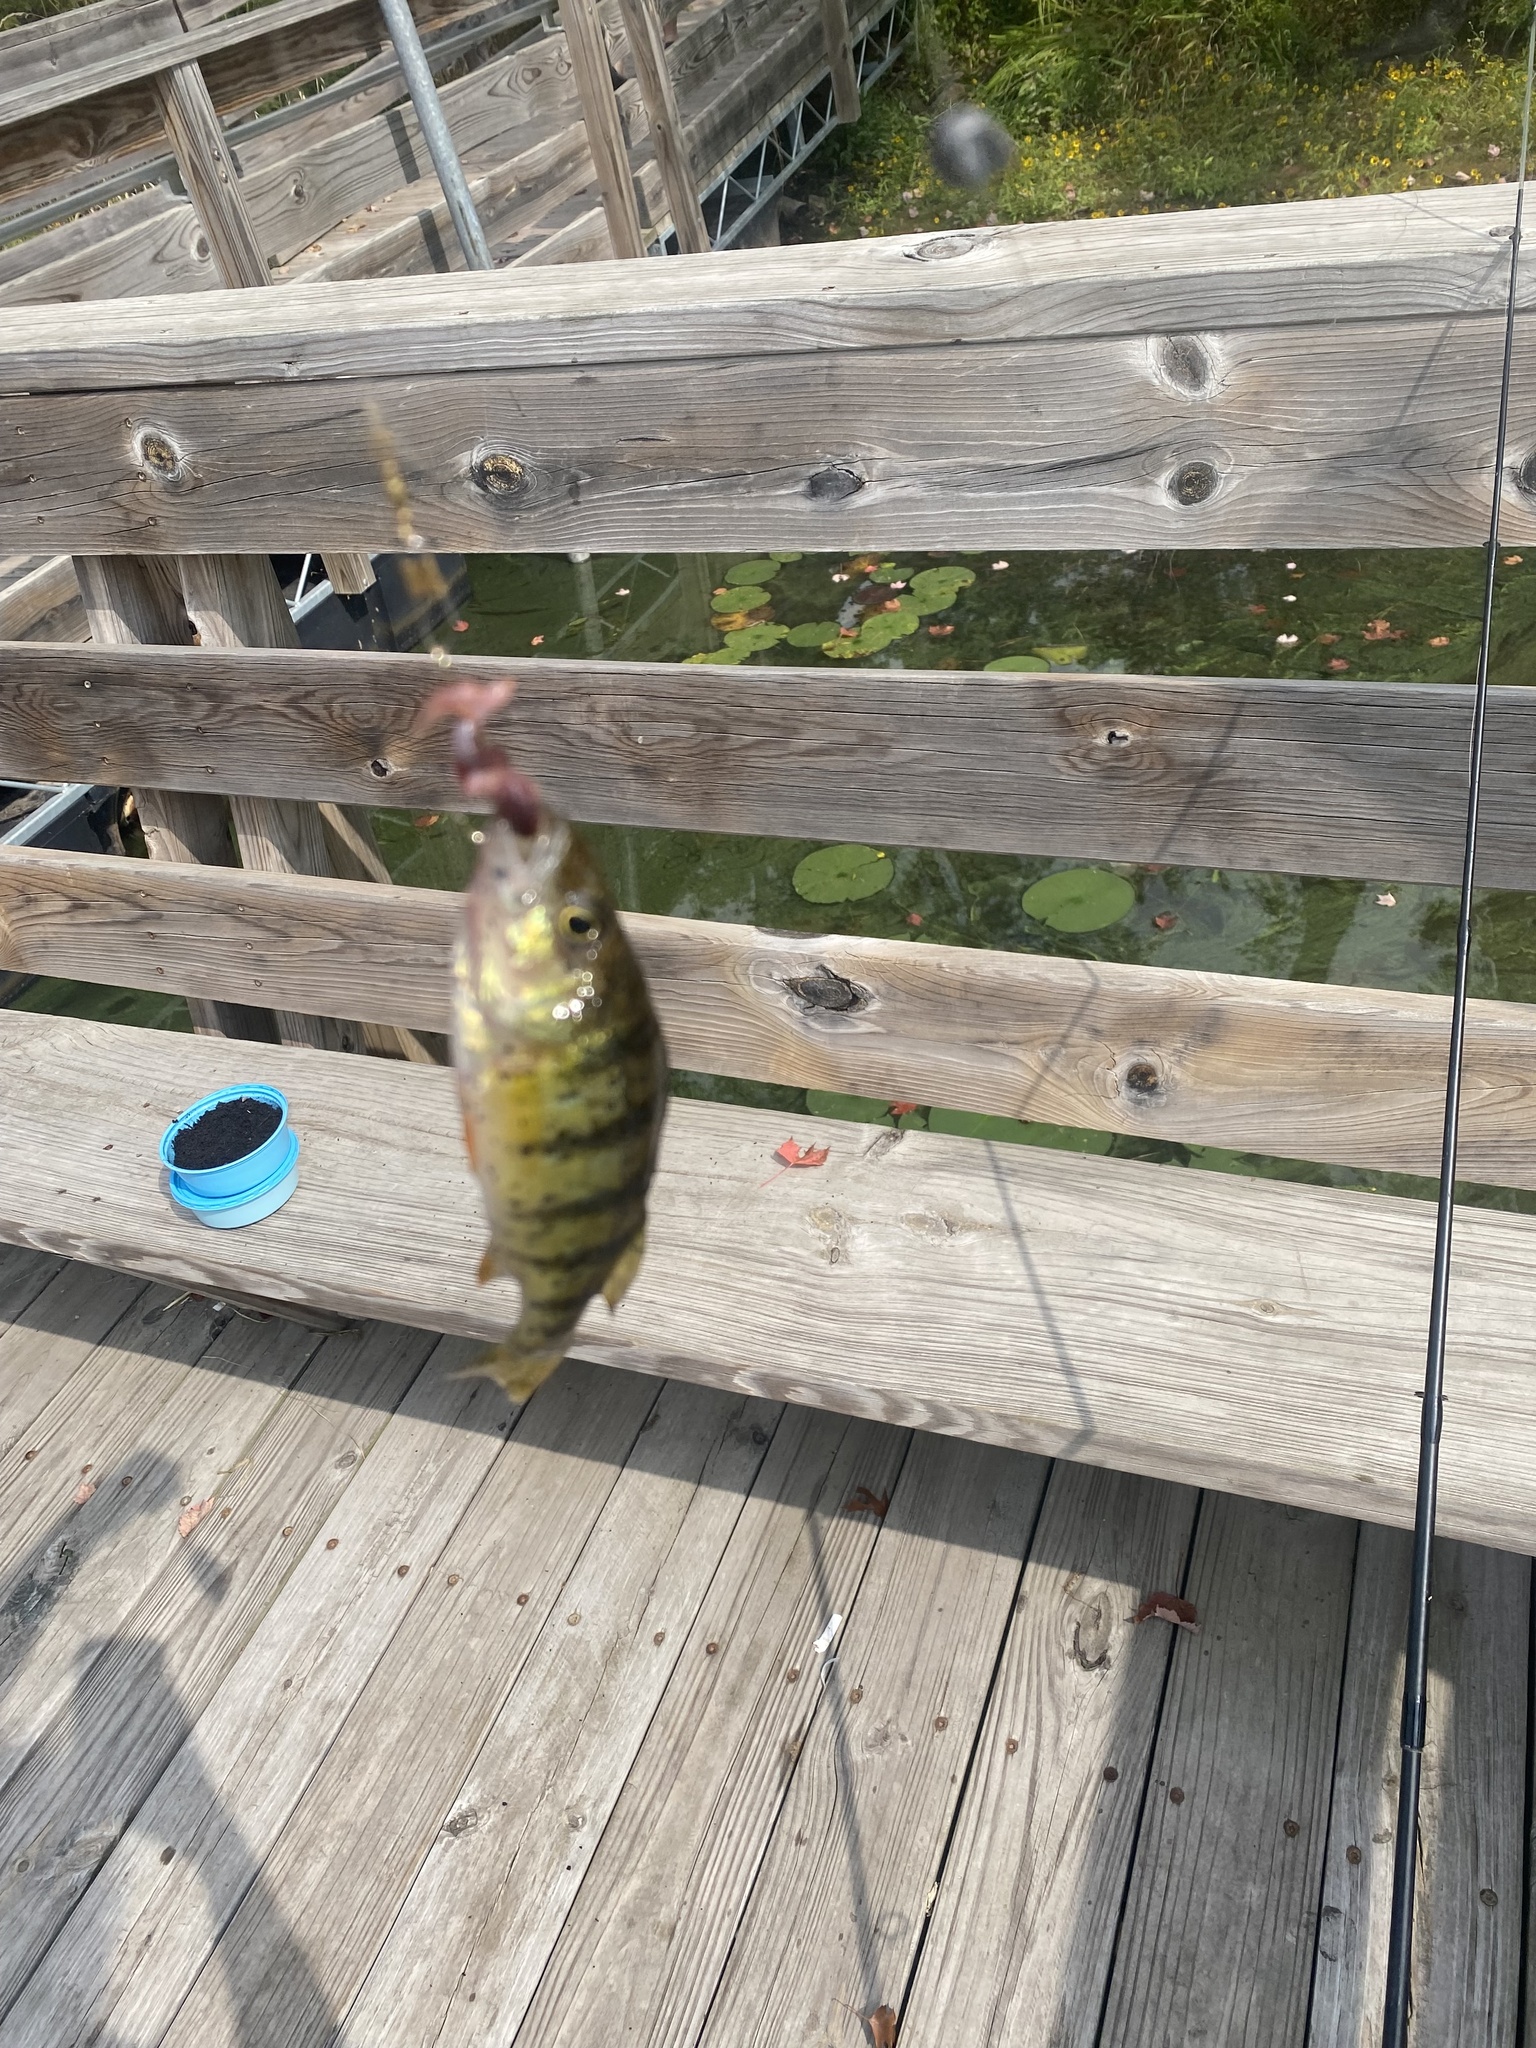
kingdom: Animalia
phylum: Chordata
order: Perciformes
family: Percidae
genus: Perca
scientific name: Perca flavescens
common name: Yellow perch
